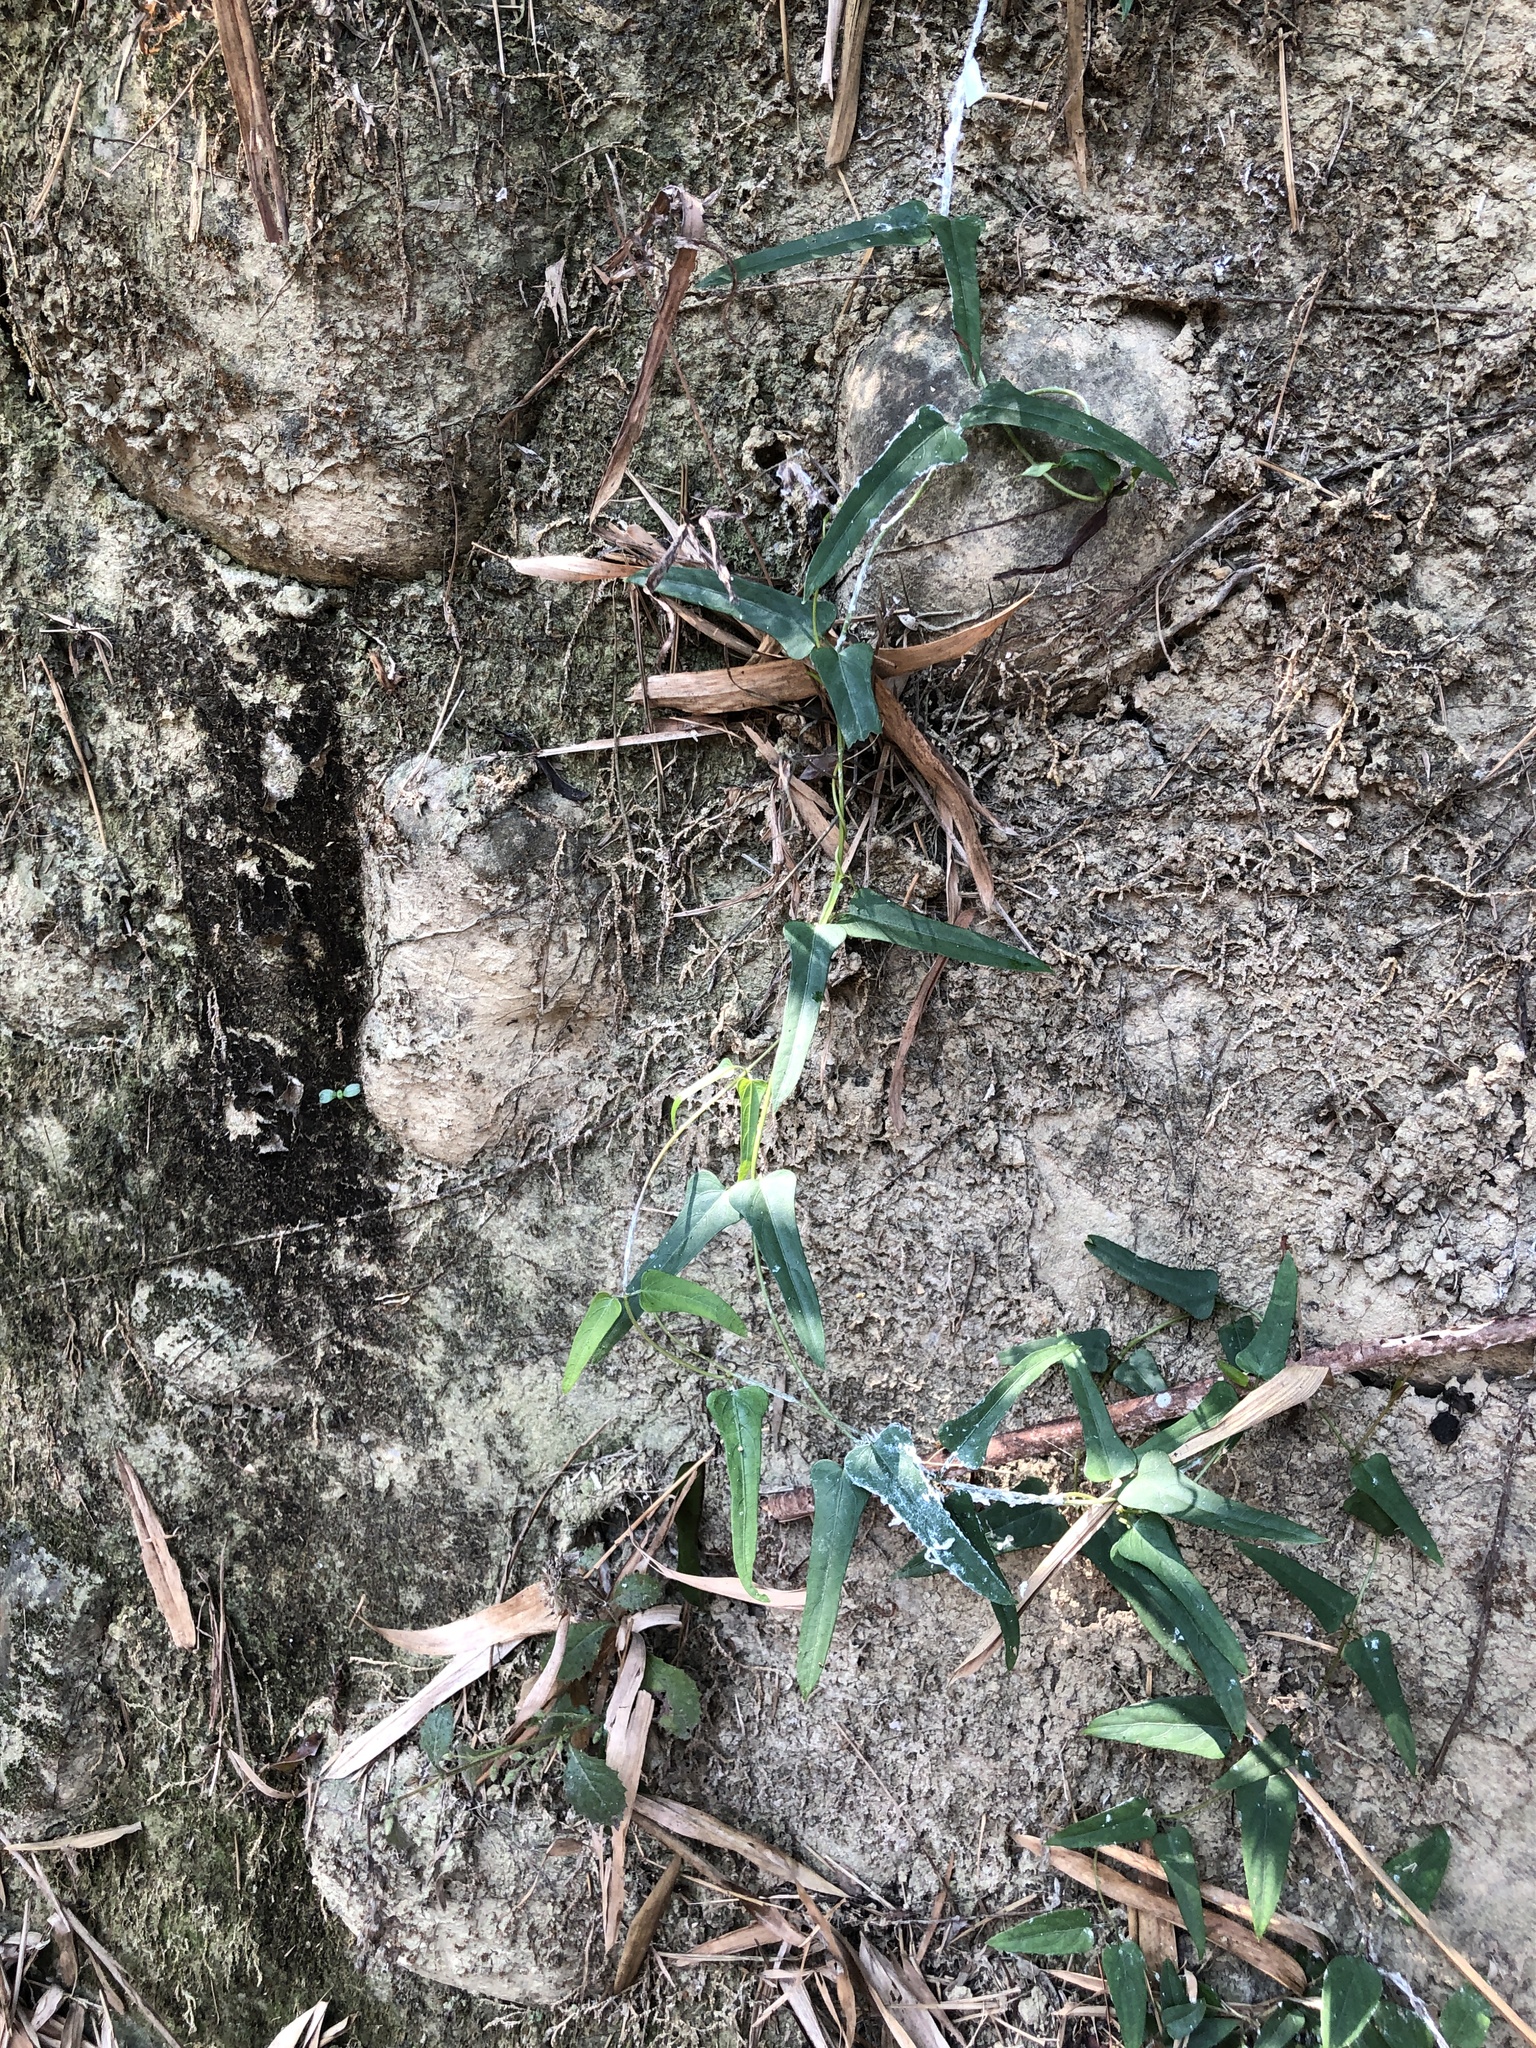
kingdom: Plantae
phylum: Tracheophyta
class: Magnoliopsida
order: Gentianales
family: Rubiaceae
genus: Paederia
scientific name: Paederia foetida
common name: Stinkvine
